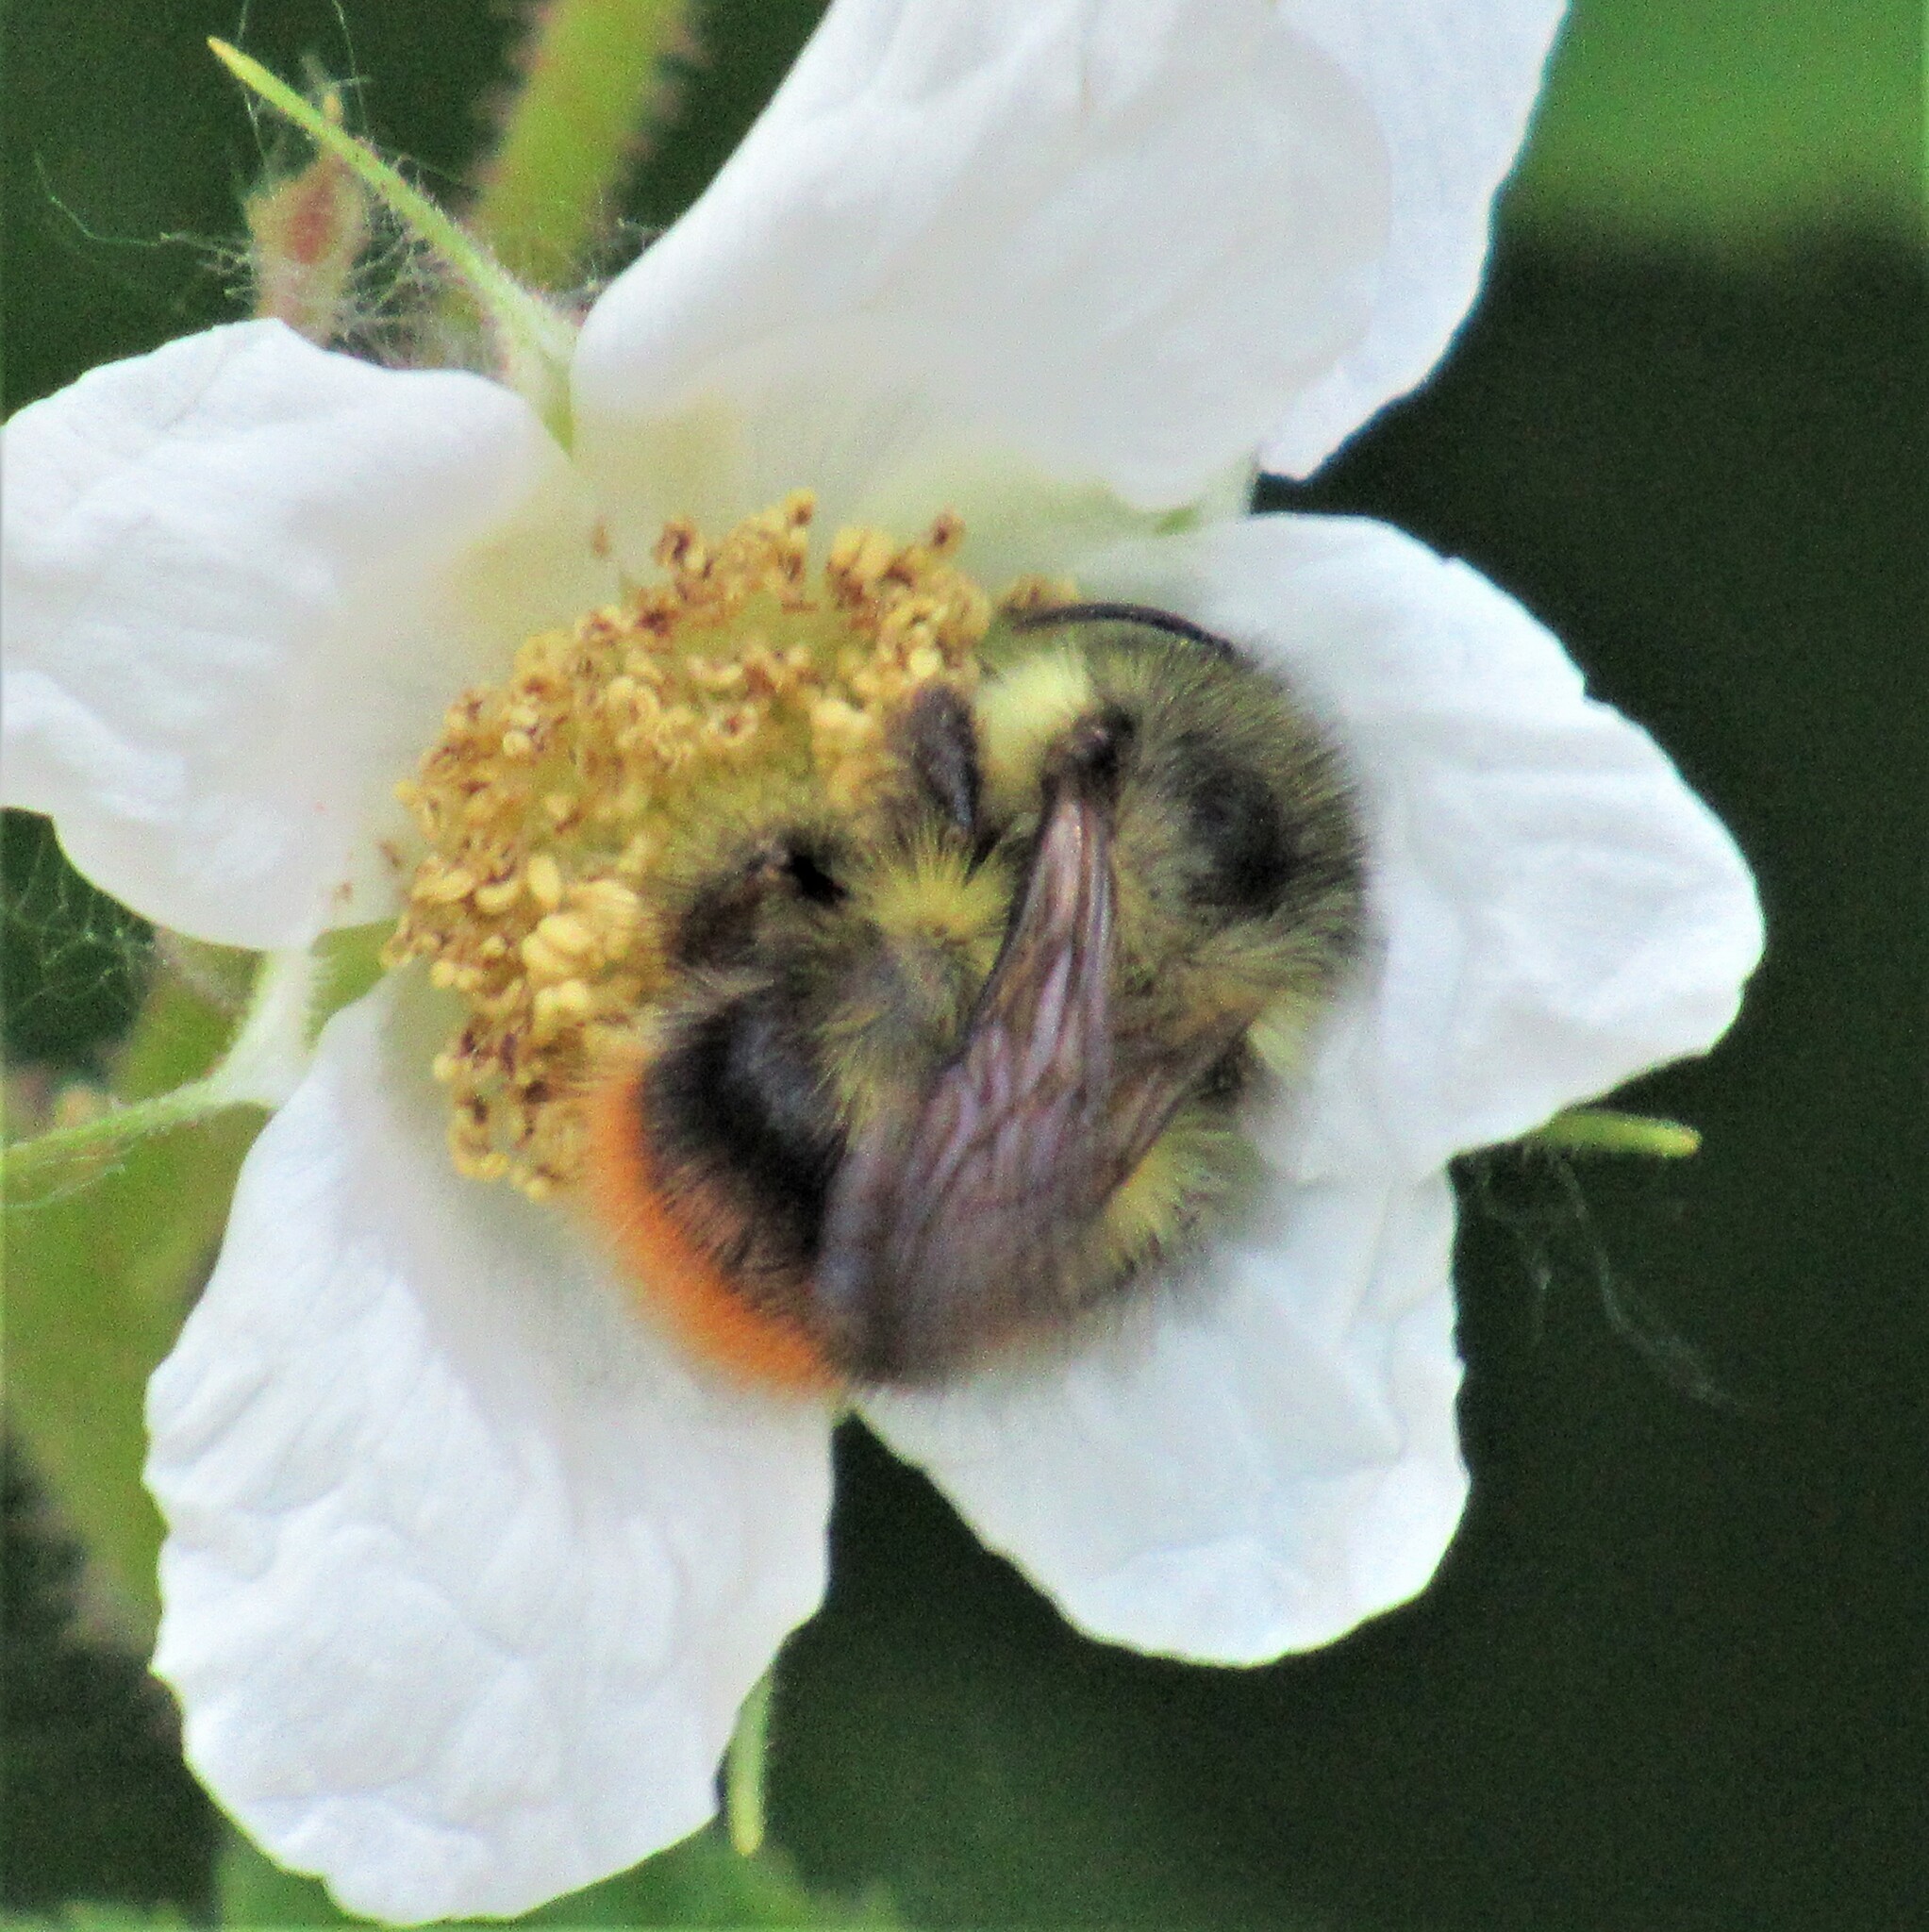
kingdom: Animalia
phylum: Arthropoda
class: Insecta
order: Hymenoptera
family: Apidae
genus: Bombus
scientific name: Bombus mixtus
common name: Fuzzy-horned bumble bee
